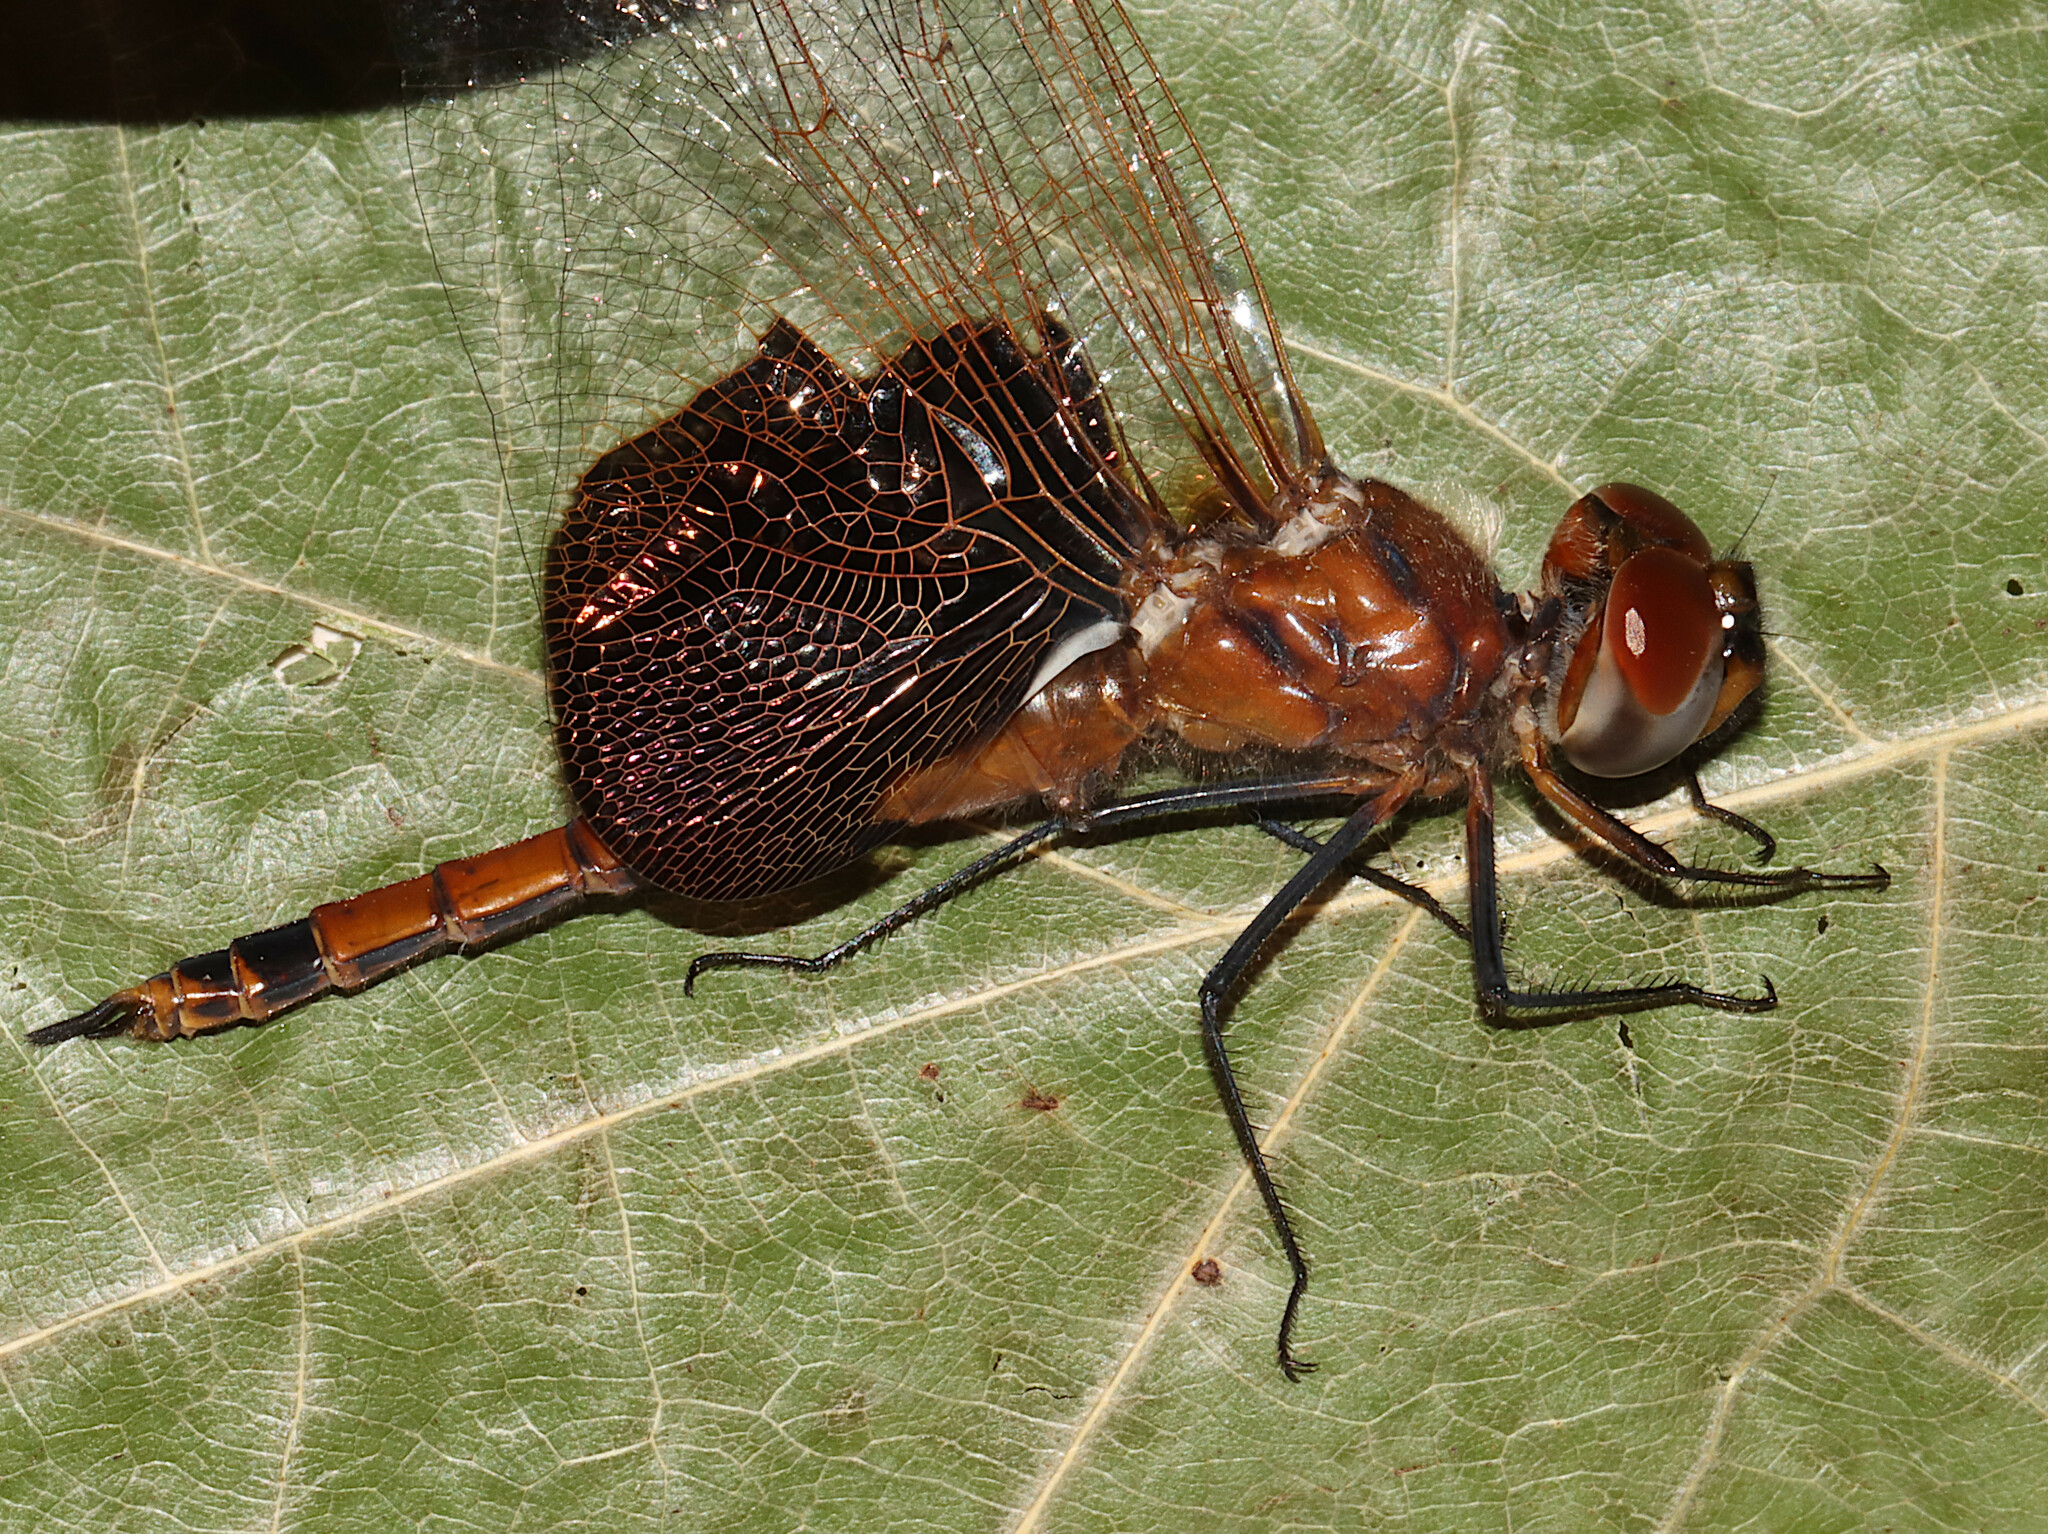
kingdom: Animalia
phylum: Arthropoda
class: Insecta
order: Odonata
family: Libellulidae
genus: Tramea
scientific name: Tramea carolina
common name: Carolina saddlebags
